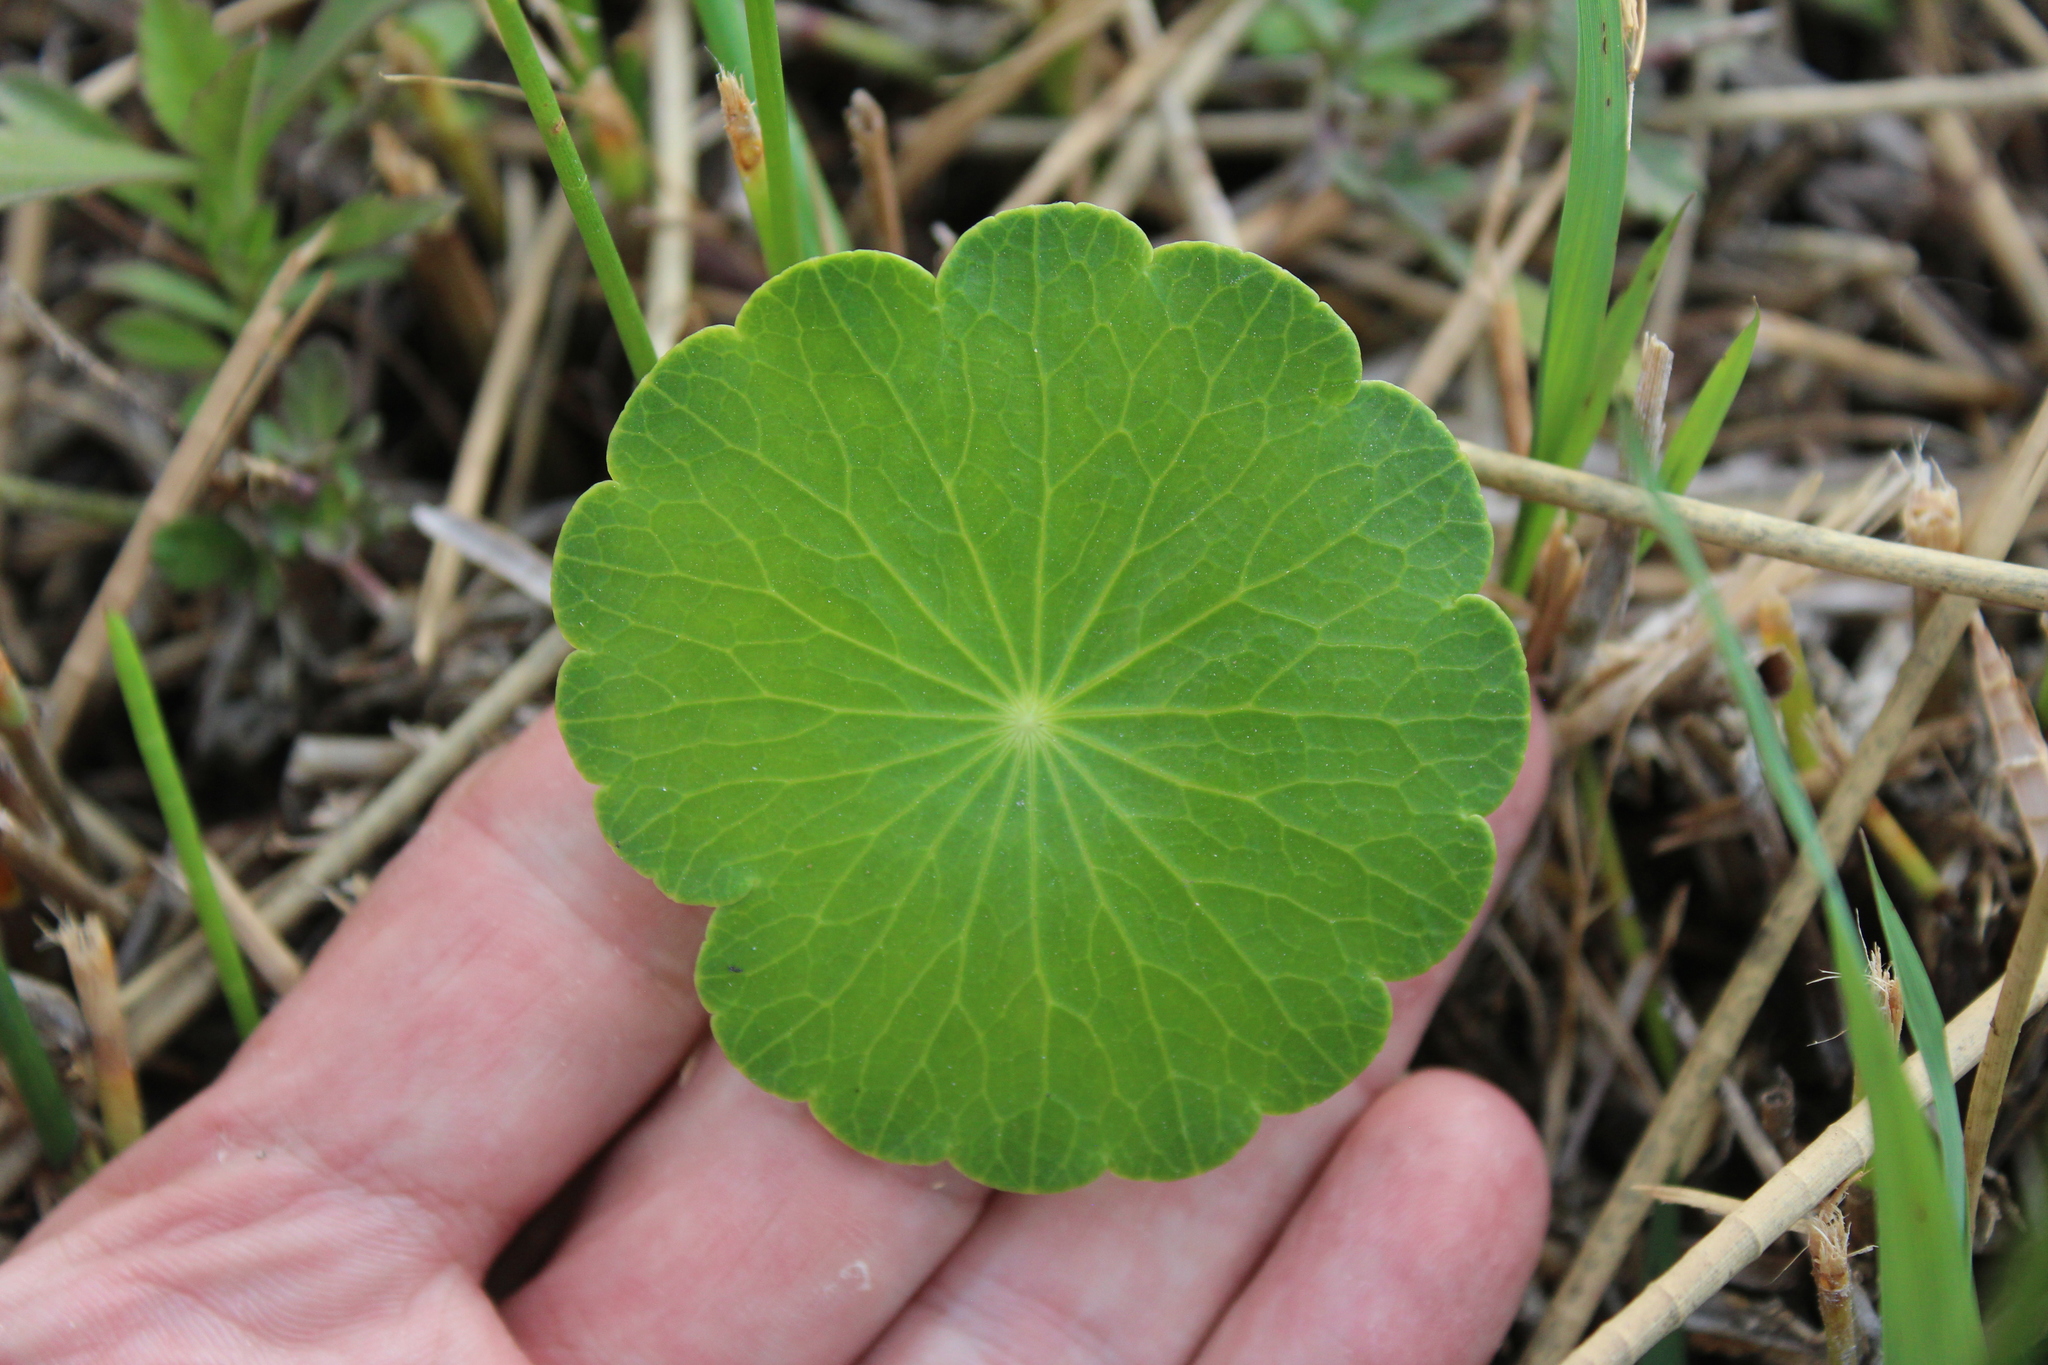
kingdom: Plantae
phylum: Tracheophyta
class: Magnoliopsida
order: Apiales
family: Araliaceae
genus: Hydrocotyle
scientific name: Hydrocotyle umbellata
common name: Water pennywort
